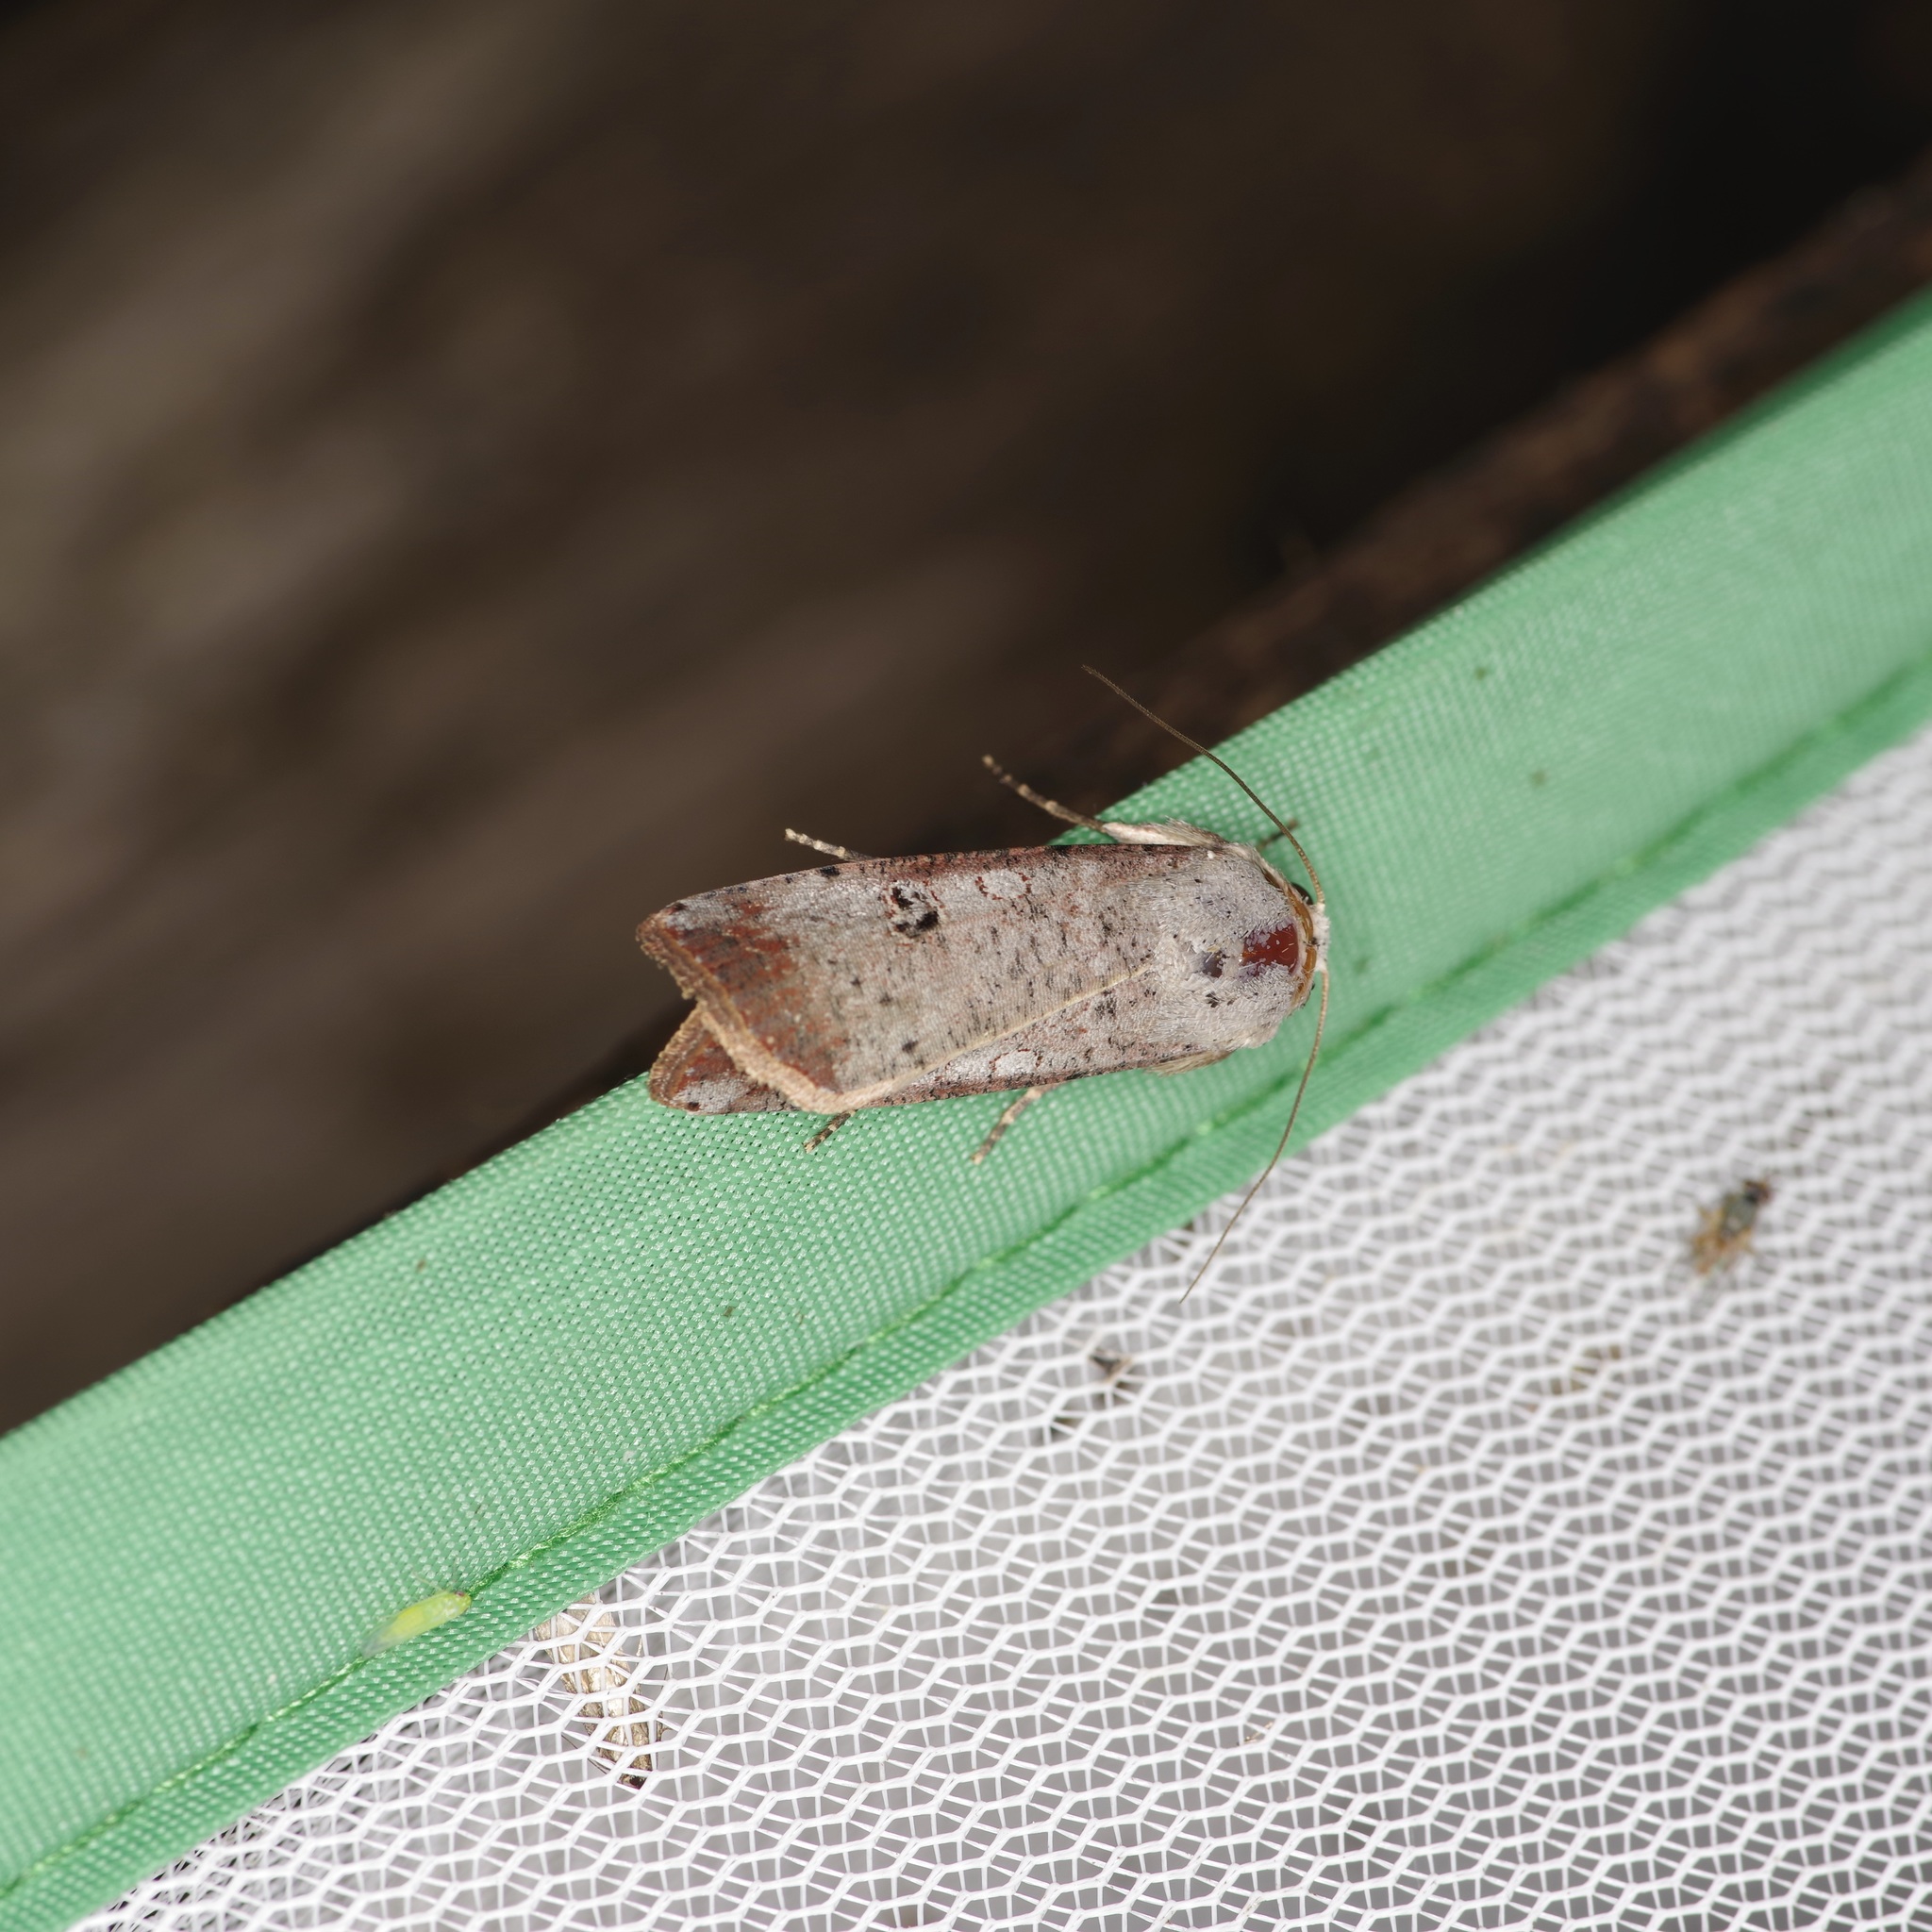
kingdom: Animalia
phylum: Arthropoda
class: Insecta
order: Lepidoptera
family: Noctuidae
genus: Anicla
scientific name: Anicla infecta
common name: Green cutworm
